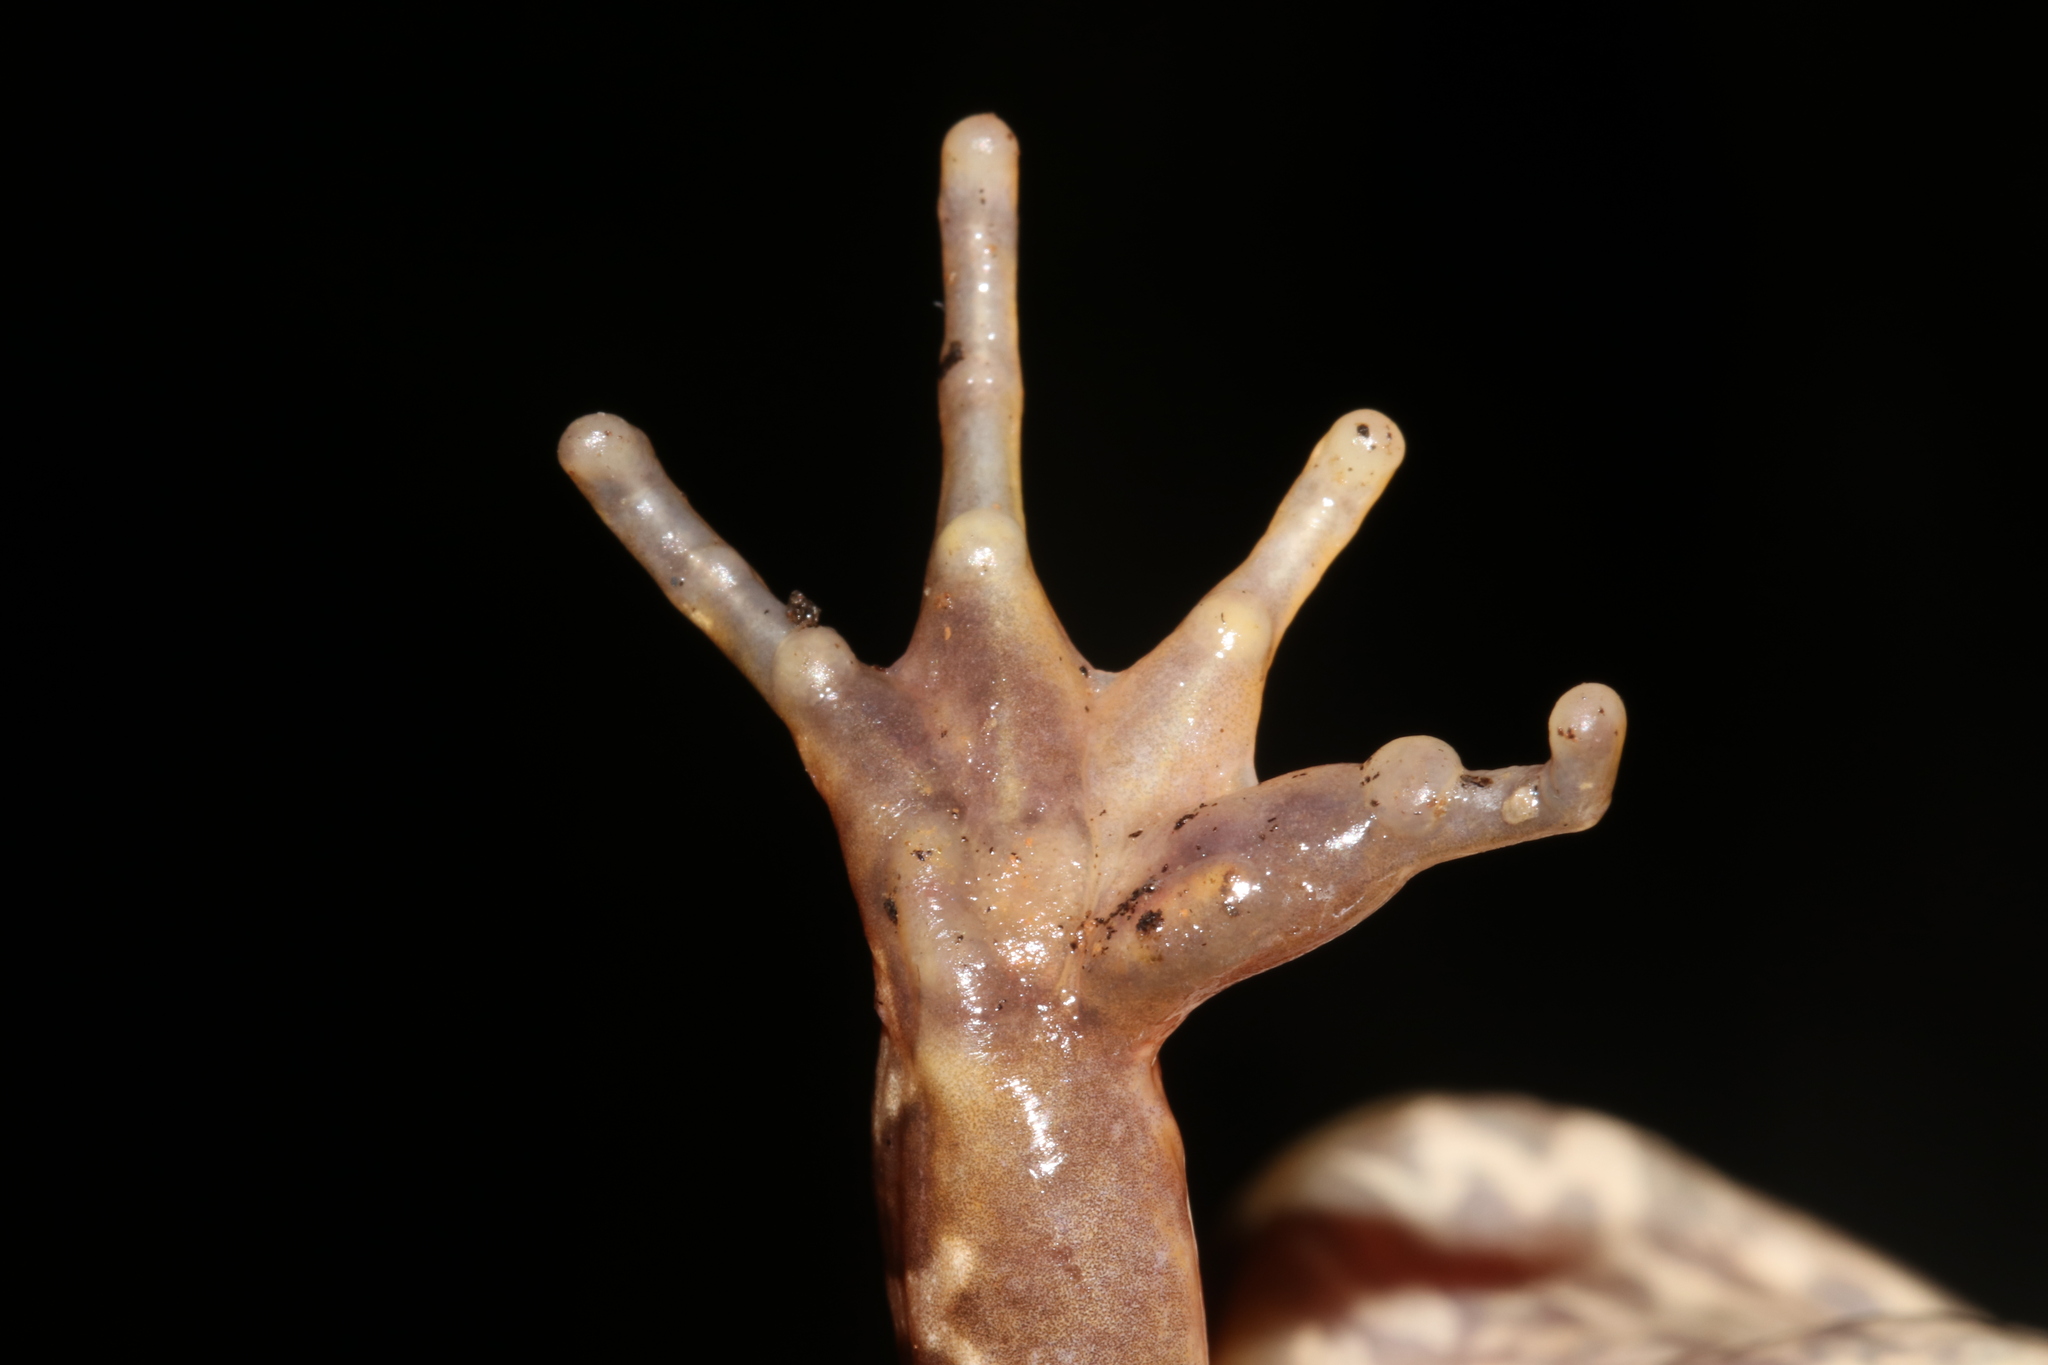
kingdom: Animalia
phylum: Chordata
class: Amphibia
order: Anura
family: Pyxicephalidae
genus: Amietia
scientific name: Amietia tenuoplicata
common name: River frog
